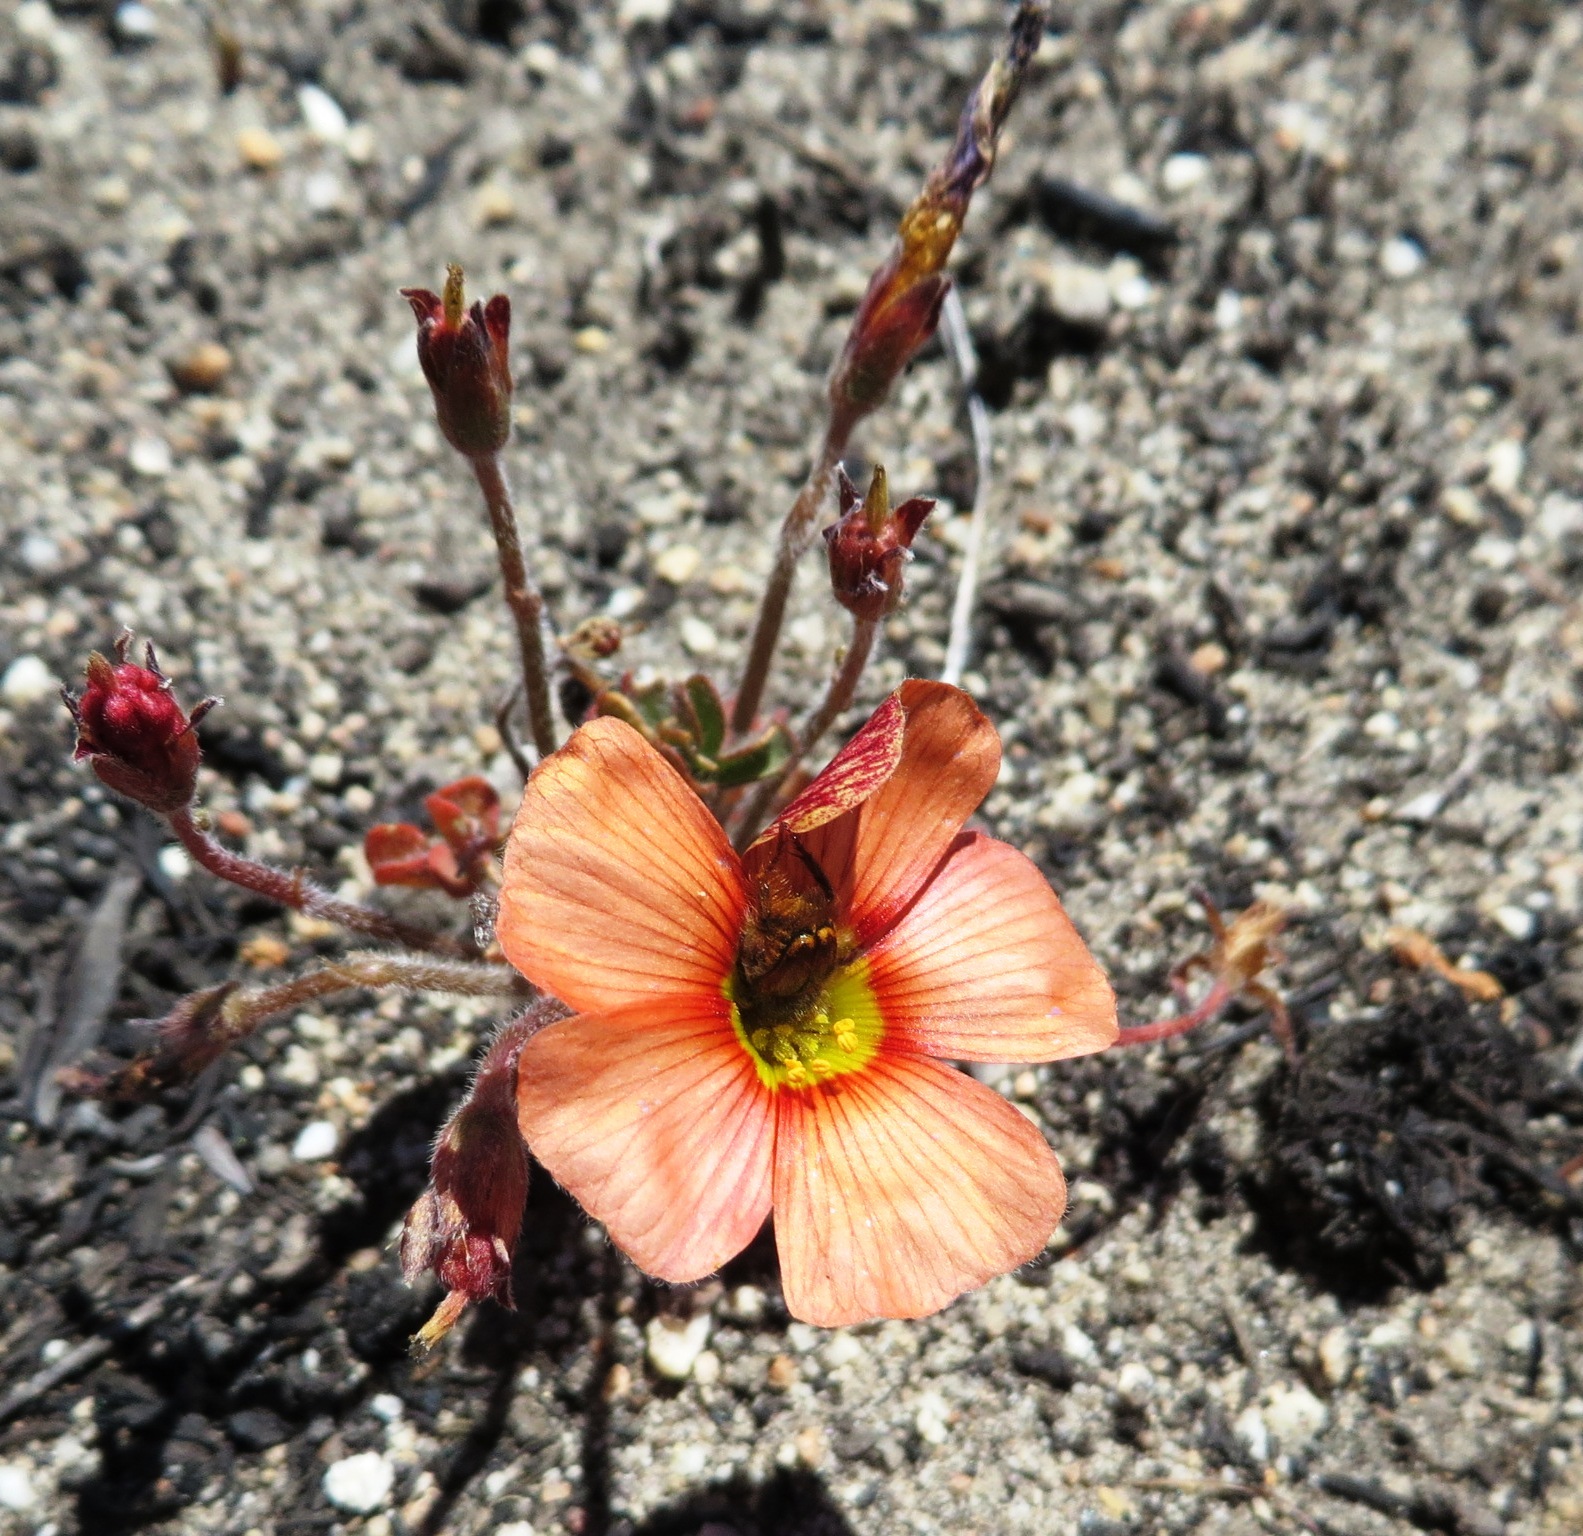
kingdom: Plantae
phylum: Tracheophyta
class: Magnoliopsida
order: Oxalidales
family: Oxalidaceae
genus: Oxalis
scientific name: Oxalis obtusa
